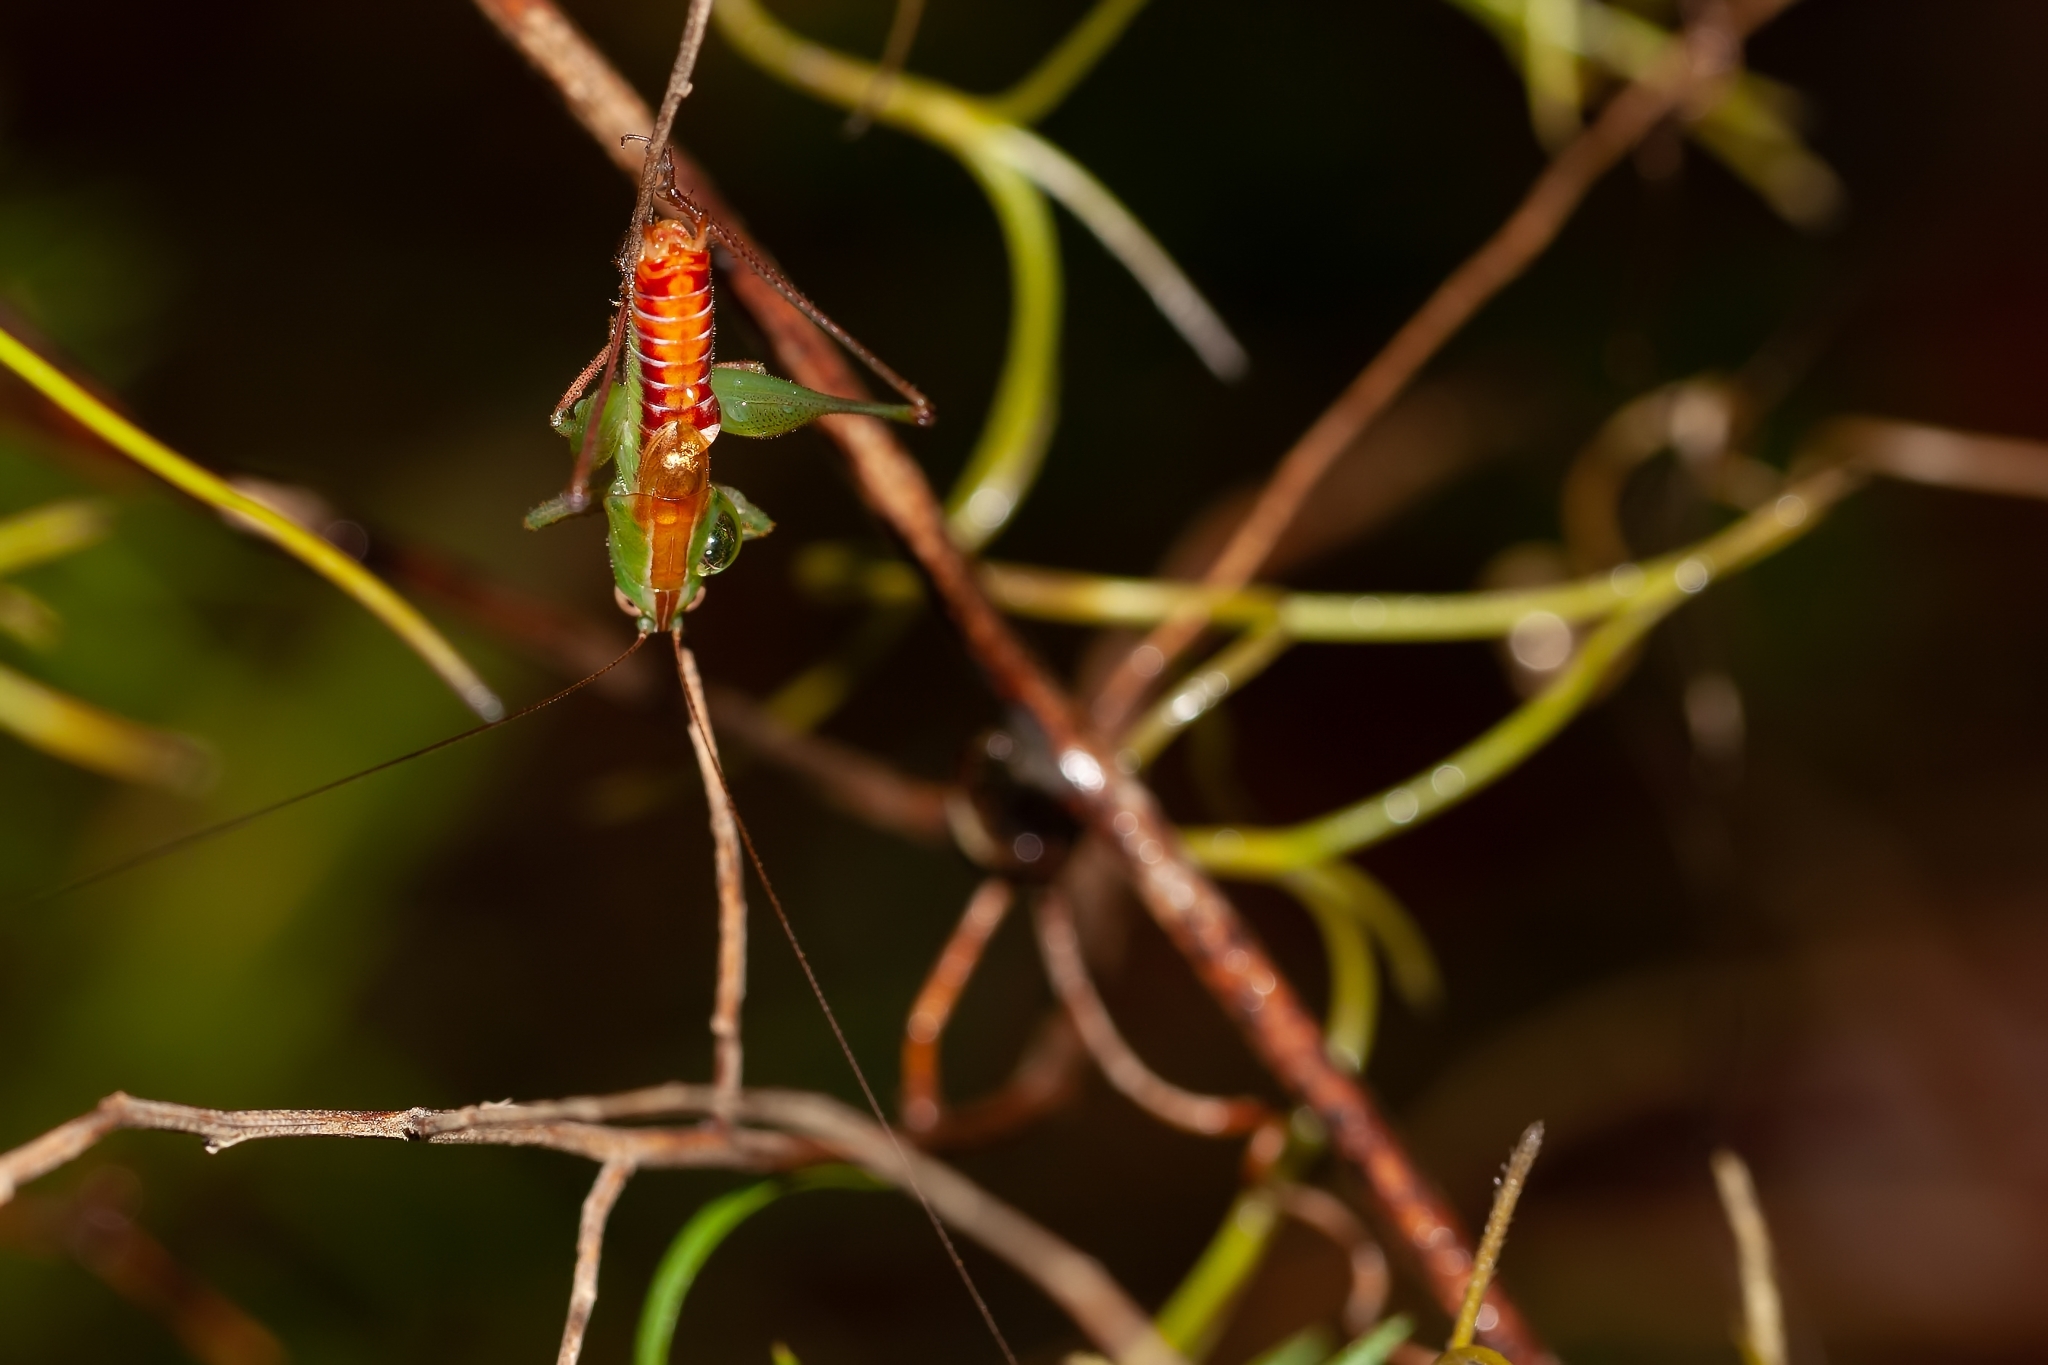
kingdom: Animalia
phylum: Arthropoda
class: Insecta
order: Orthoptera
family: Tettigoniidae
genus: Odontoxiphidium
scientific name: Odontoxiphidium apterum
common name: Wingless meadow katydid
